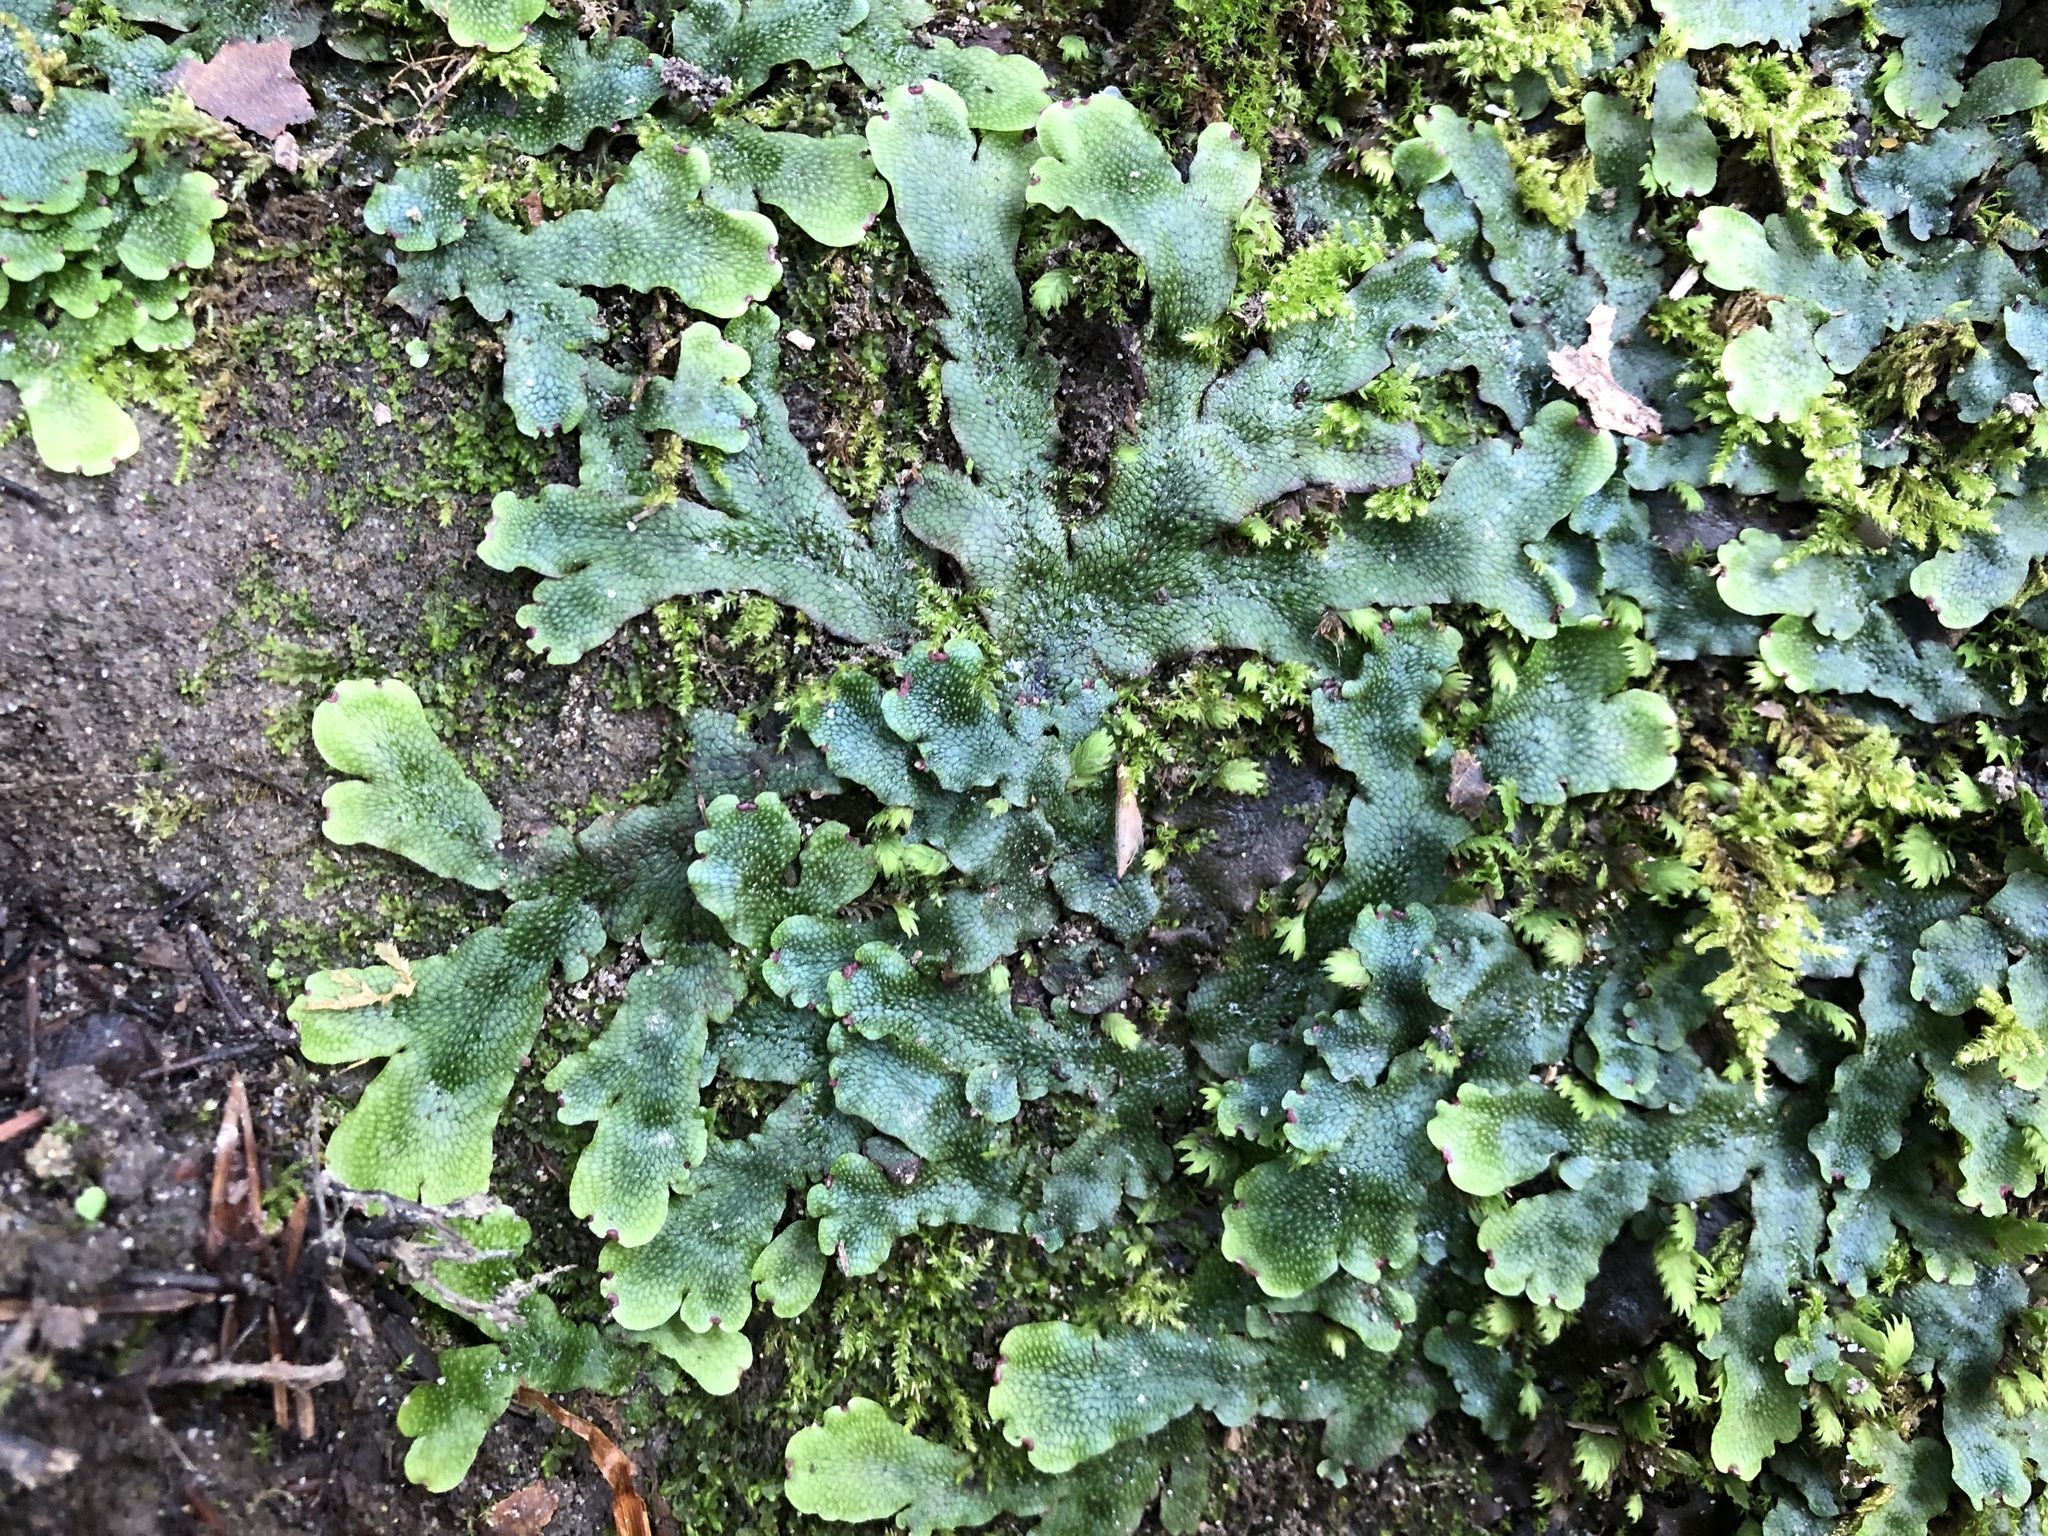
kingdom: Plantae
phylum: Marchantiophyta
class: Marchantiopsida
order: Marchantiales
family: Conocephalaceae
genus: Conocephalum
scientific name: Conocephalum salebrosum
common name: Cat-tongue liverwort
